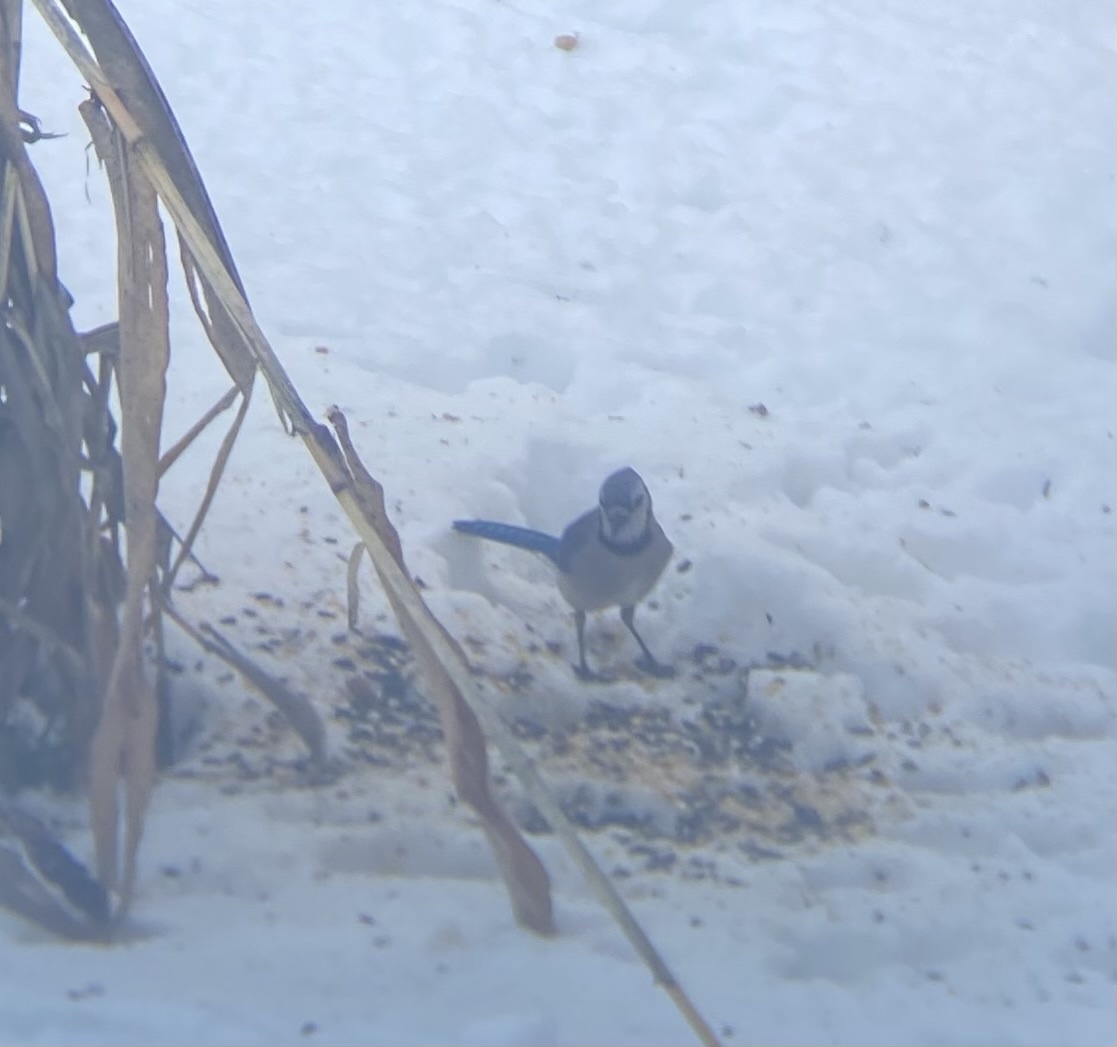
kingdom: Animalia
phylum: Chordata
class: Aves
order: Passeriformes
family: Corvidae
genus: Cyanocitta
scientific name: Cyanocitta cristata
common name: Blue jay
